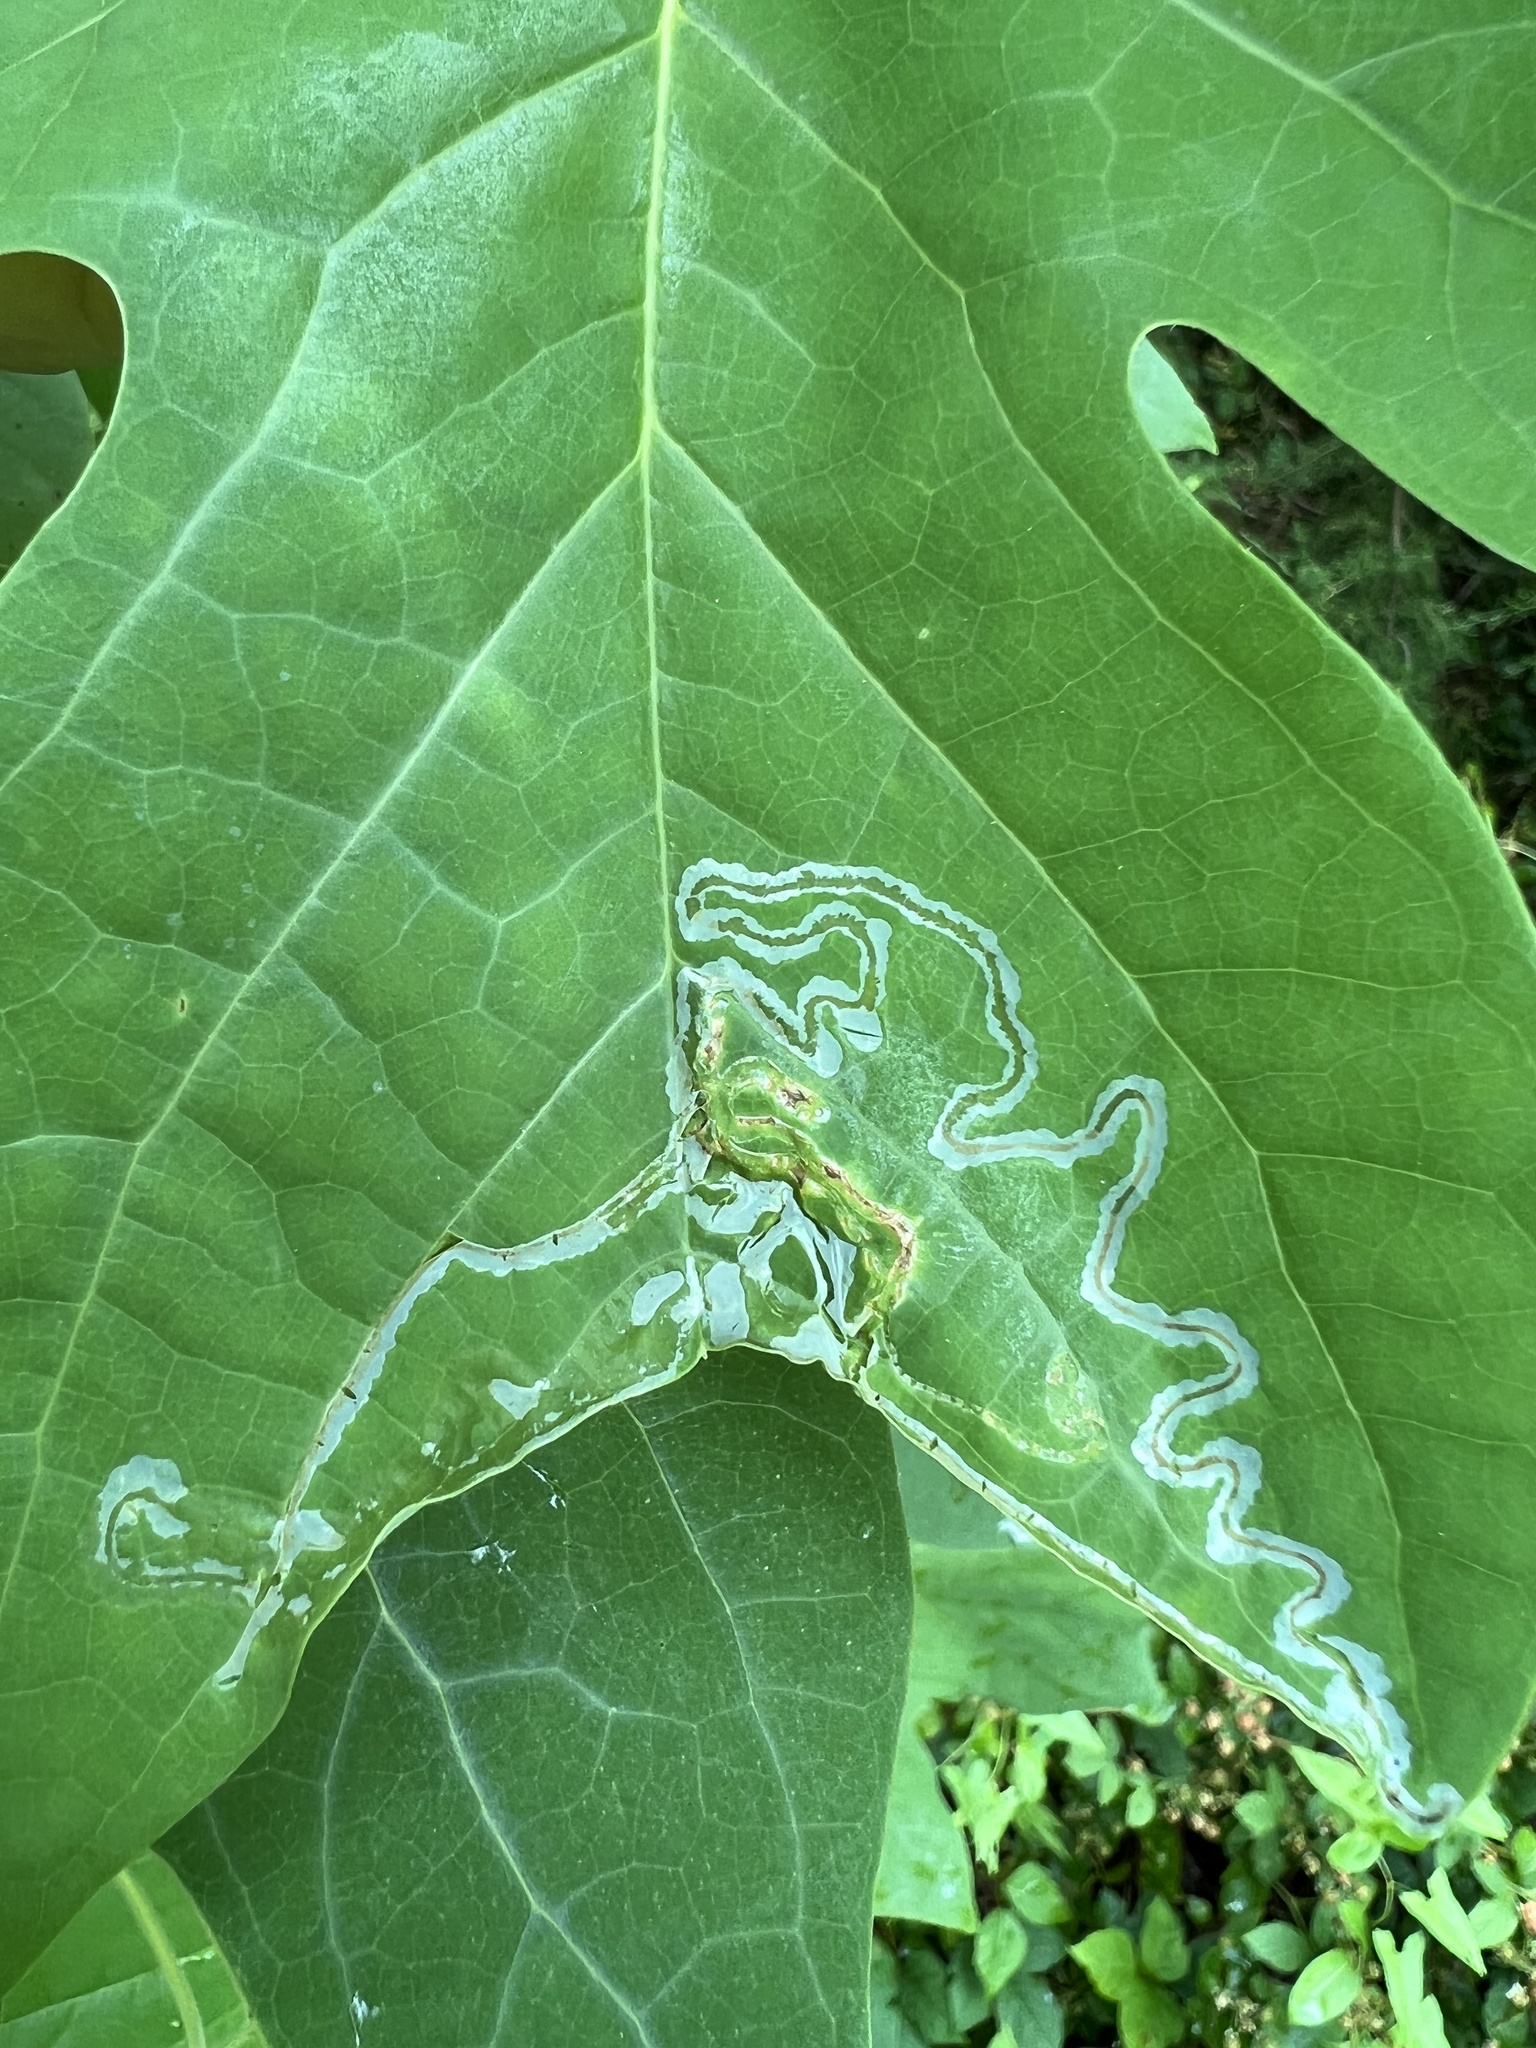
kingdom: Animalia
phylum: Arthropoda
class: Insecta
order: Lepidoptera
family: Gracillariidae
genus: Phyllocnistis
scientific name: Phyllocnistis liriodendronella
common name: Tulip tree leaf miner
